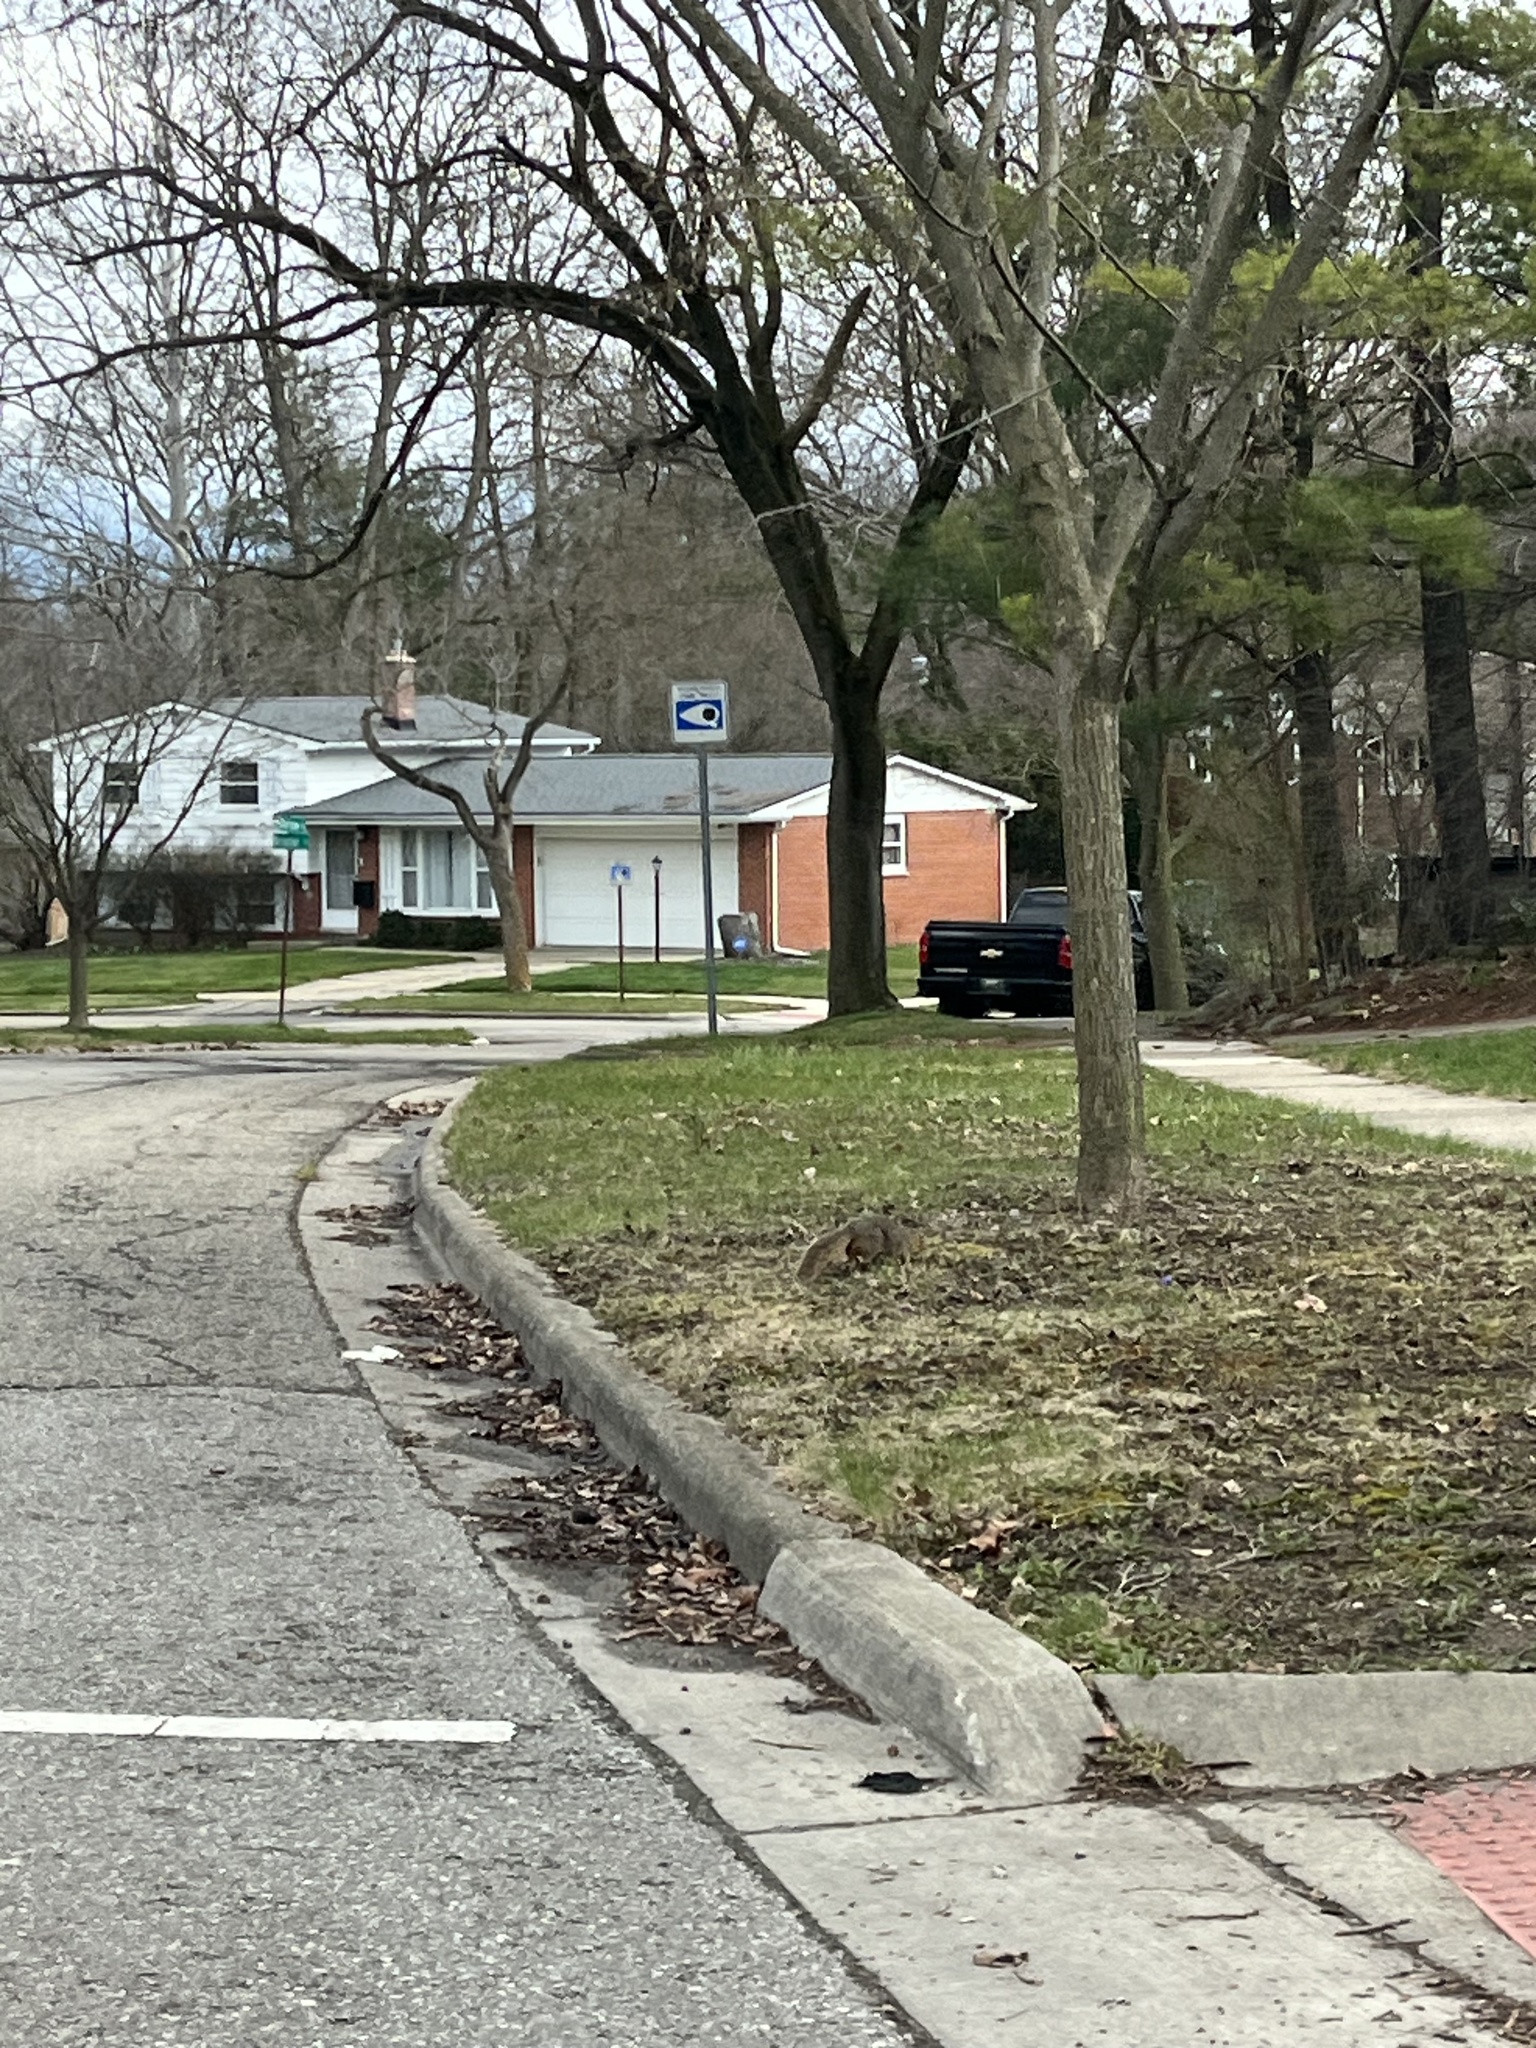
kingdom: Animalia
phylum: Chordata
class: Mammalia
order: Rodentia
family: Sciuridae
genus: Sciurus
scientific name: Sciurus niger
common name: Fox squirrel
